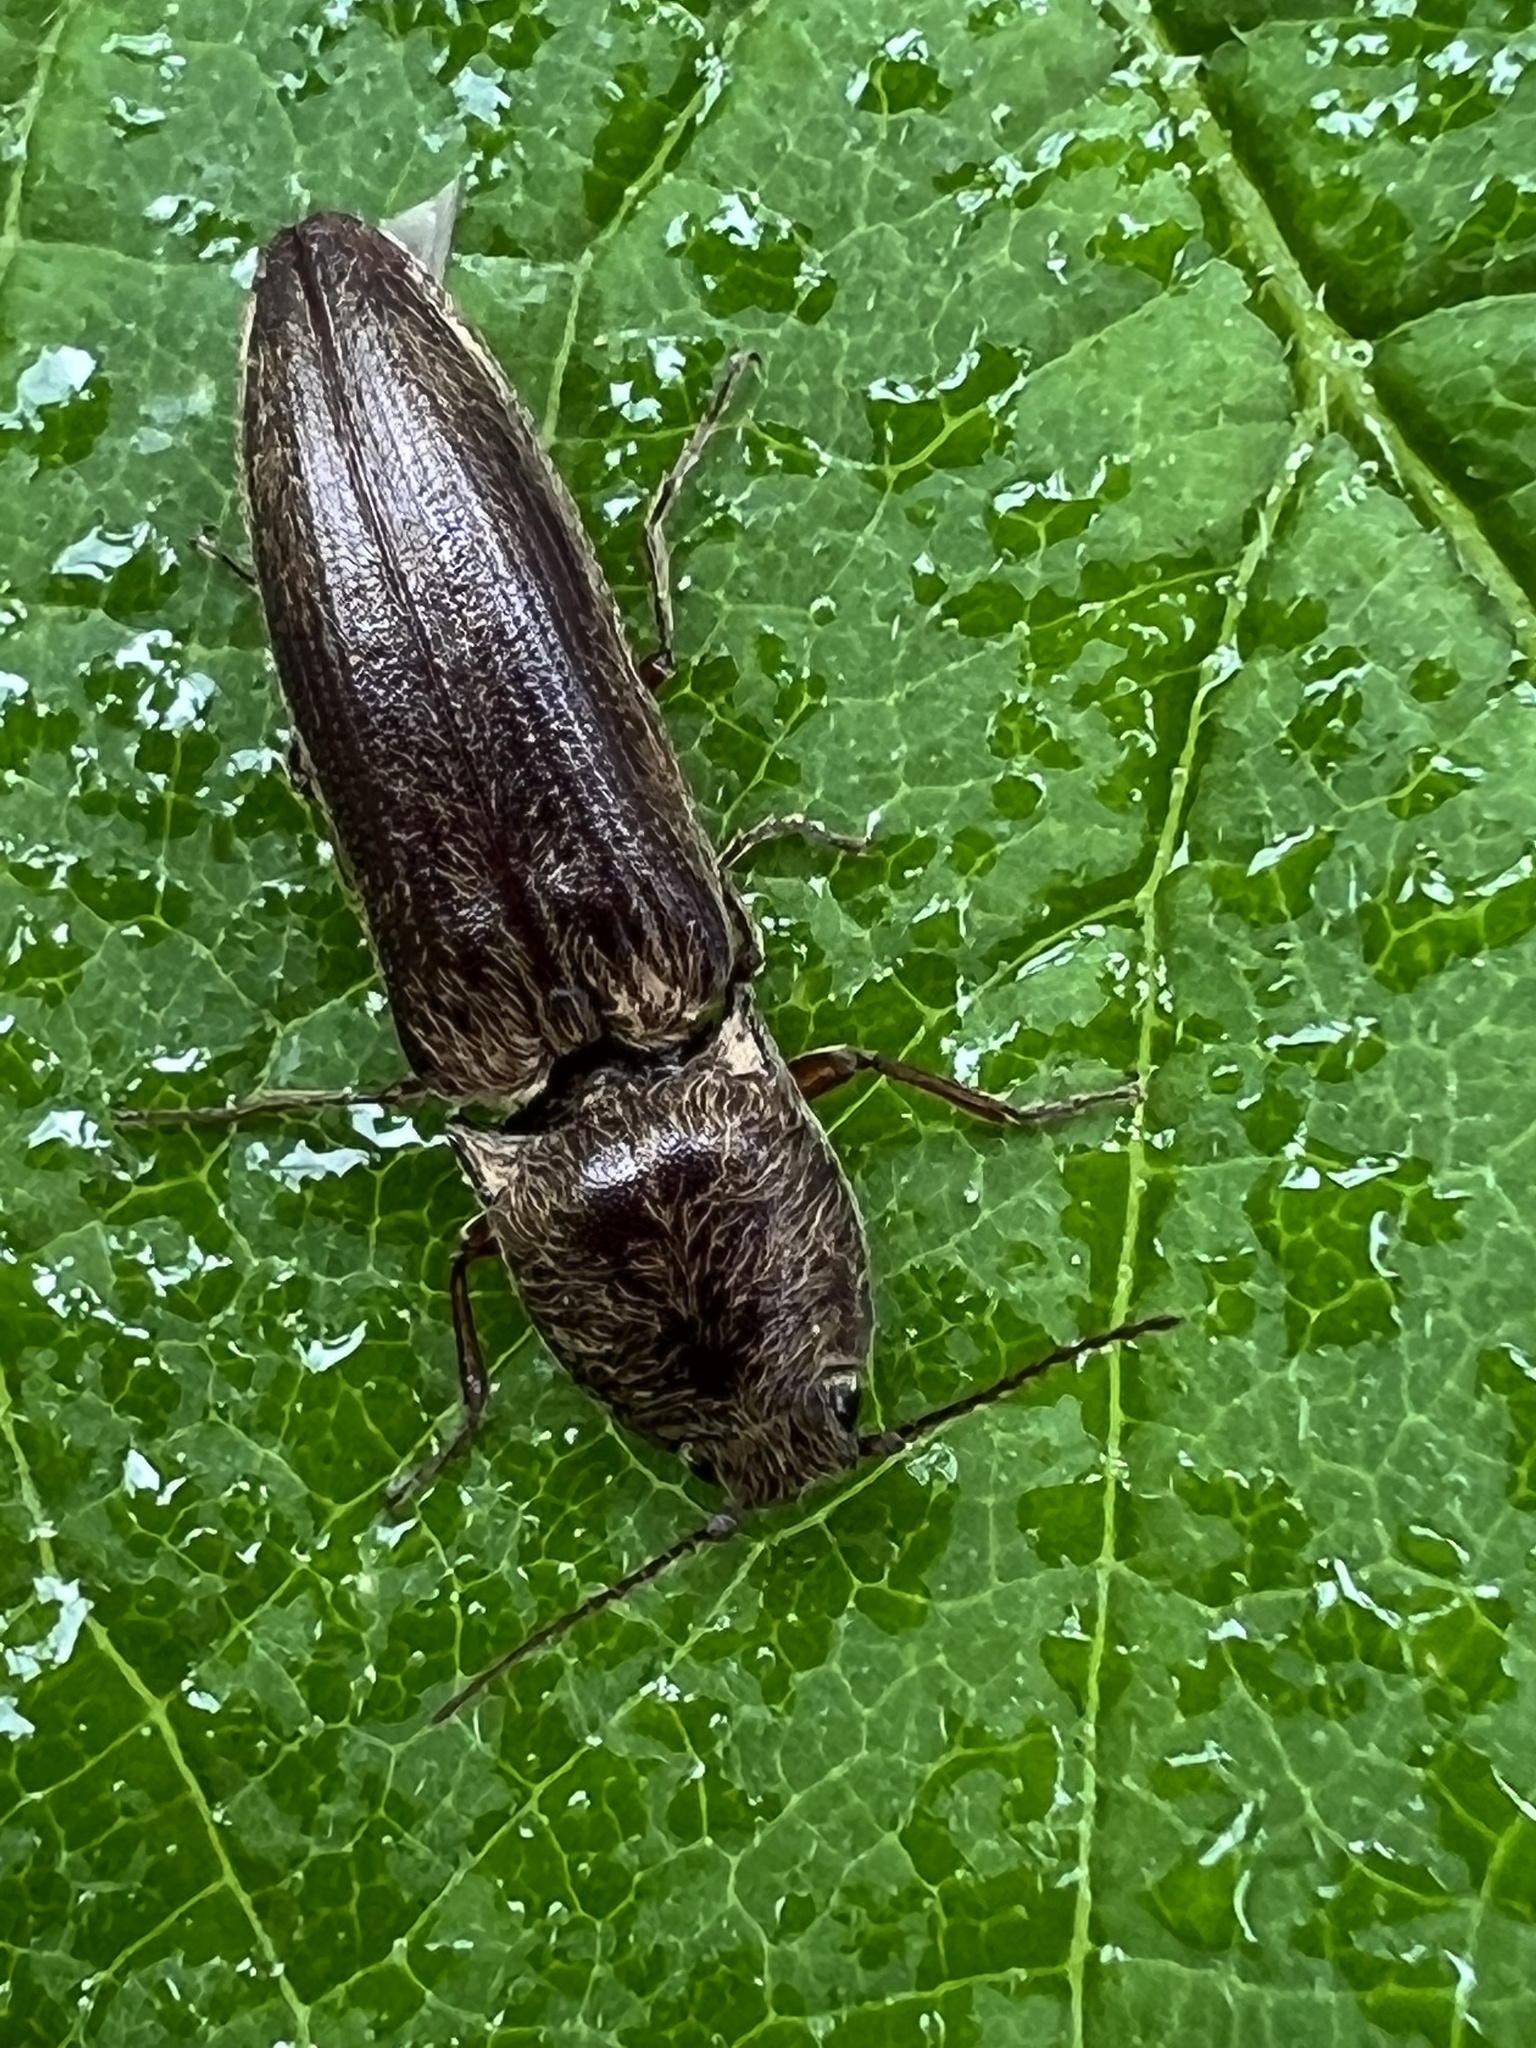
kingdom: Animalia
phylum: Arthropoda
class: Insecta
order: Coleoptera
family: Elateridae
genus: Gambrinus
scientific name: Gambrinus griseus
